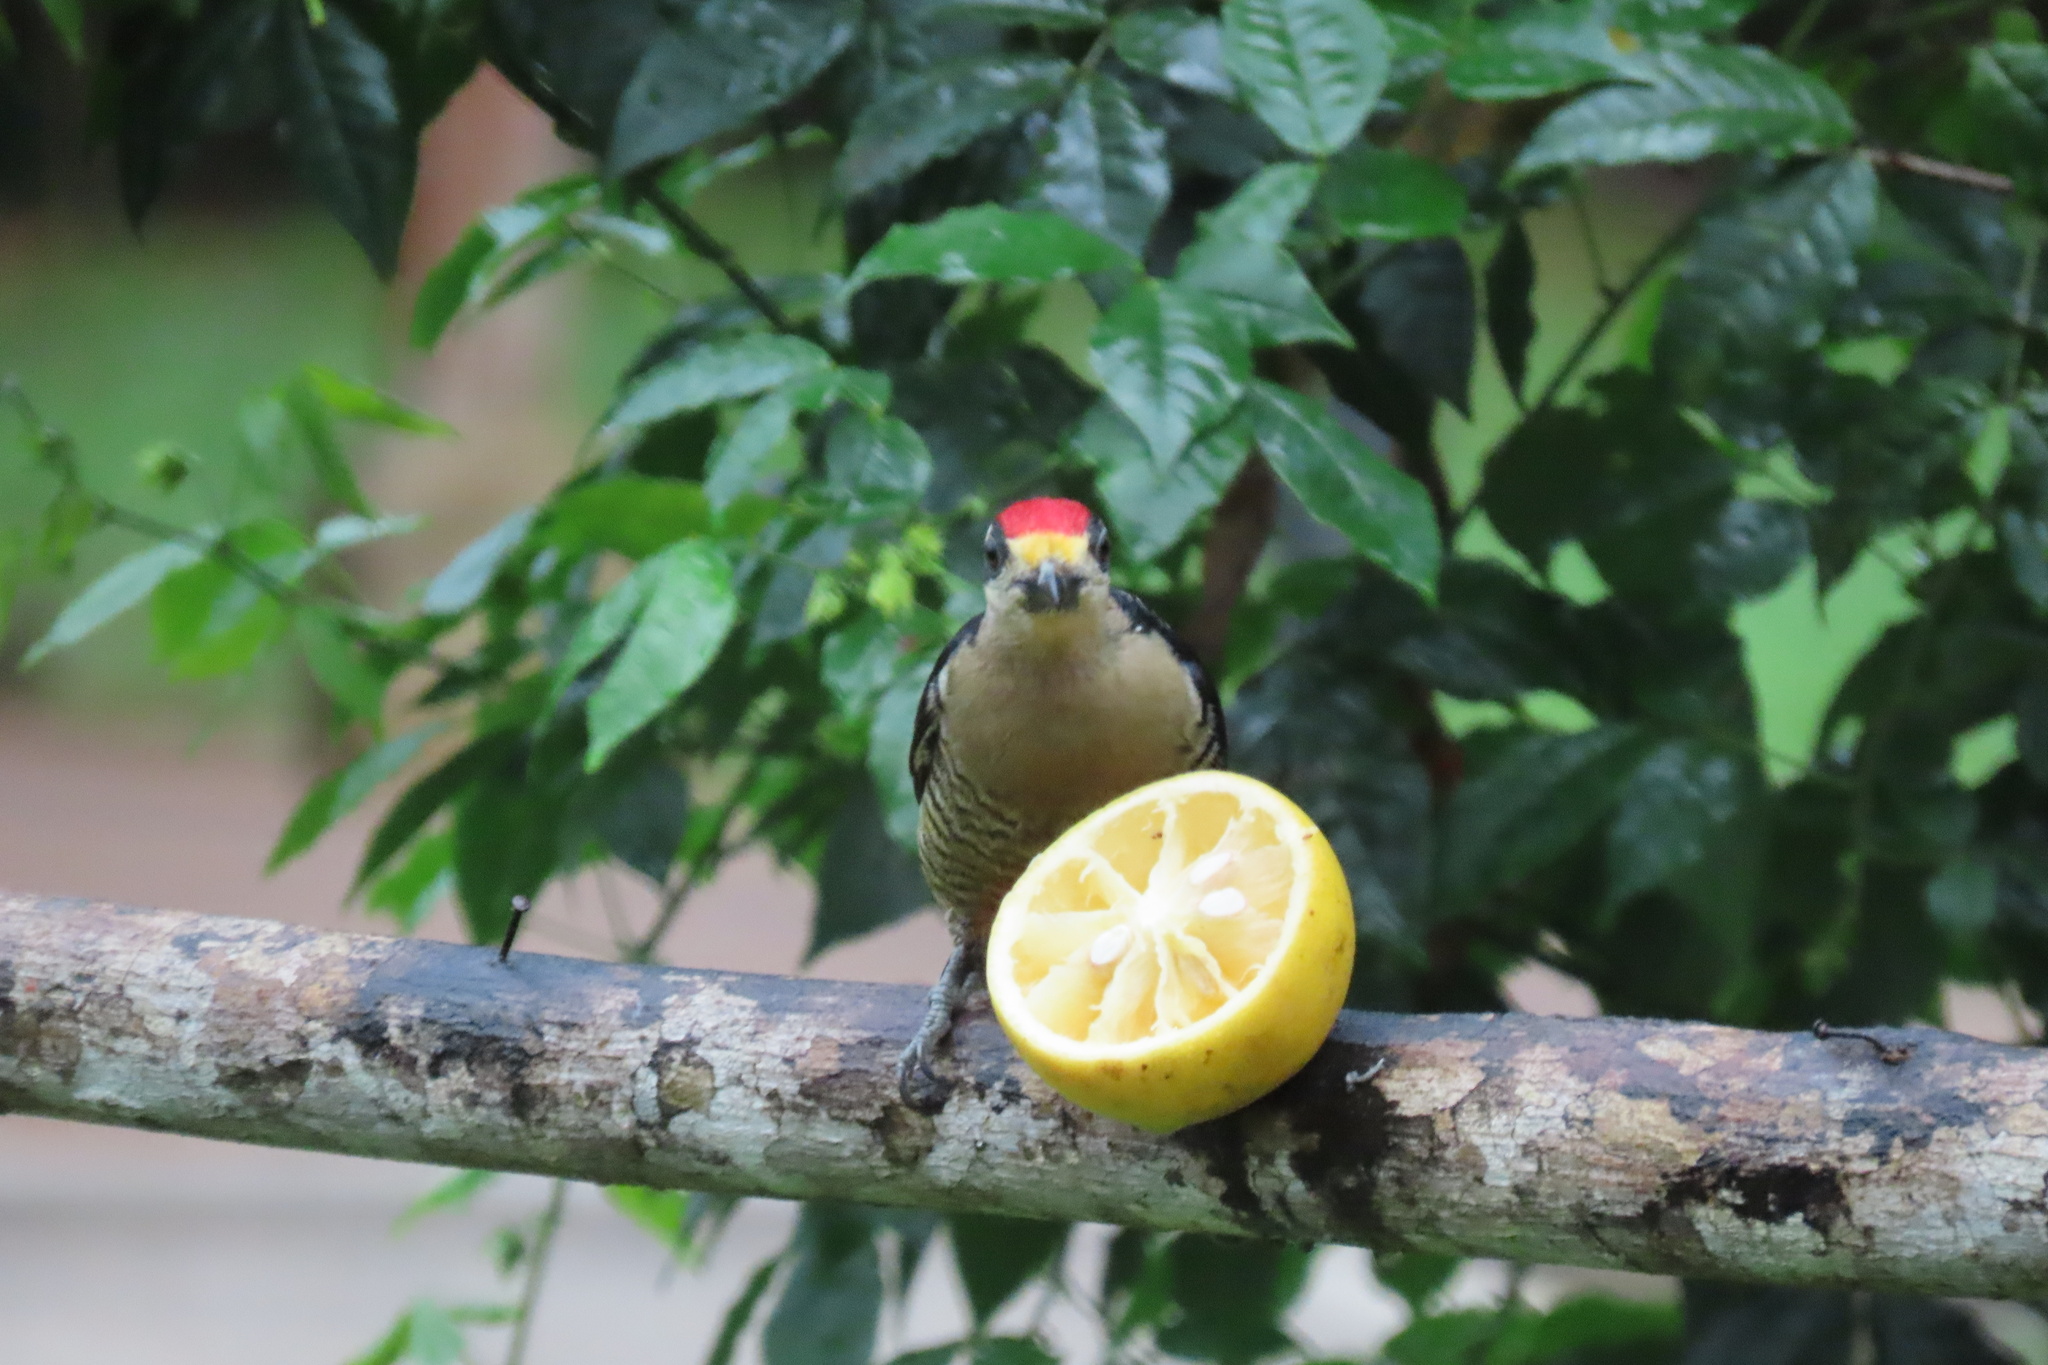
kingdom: Animalia
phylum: Chordata
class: Aves
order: Piciformes
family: Picidae
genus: Melanerpes
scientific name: Melanerpes pucherani
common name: Black-cheeked woodpecker
